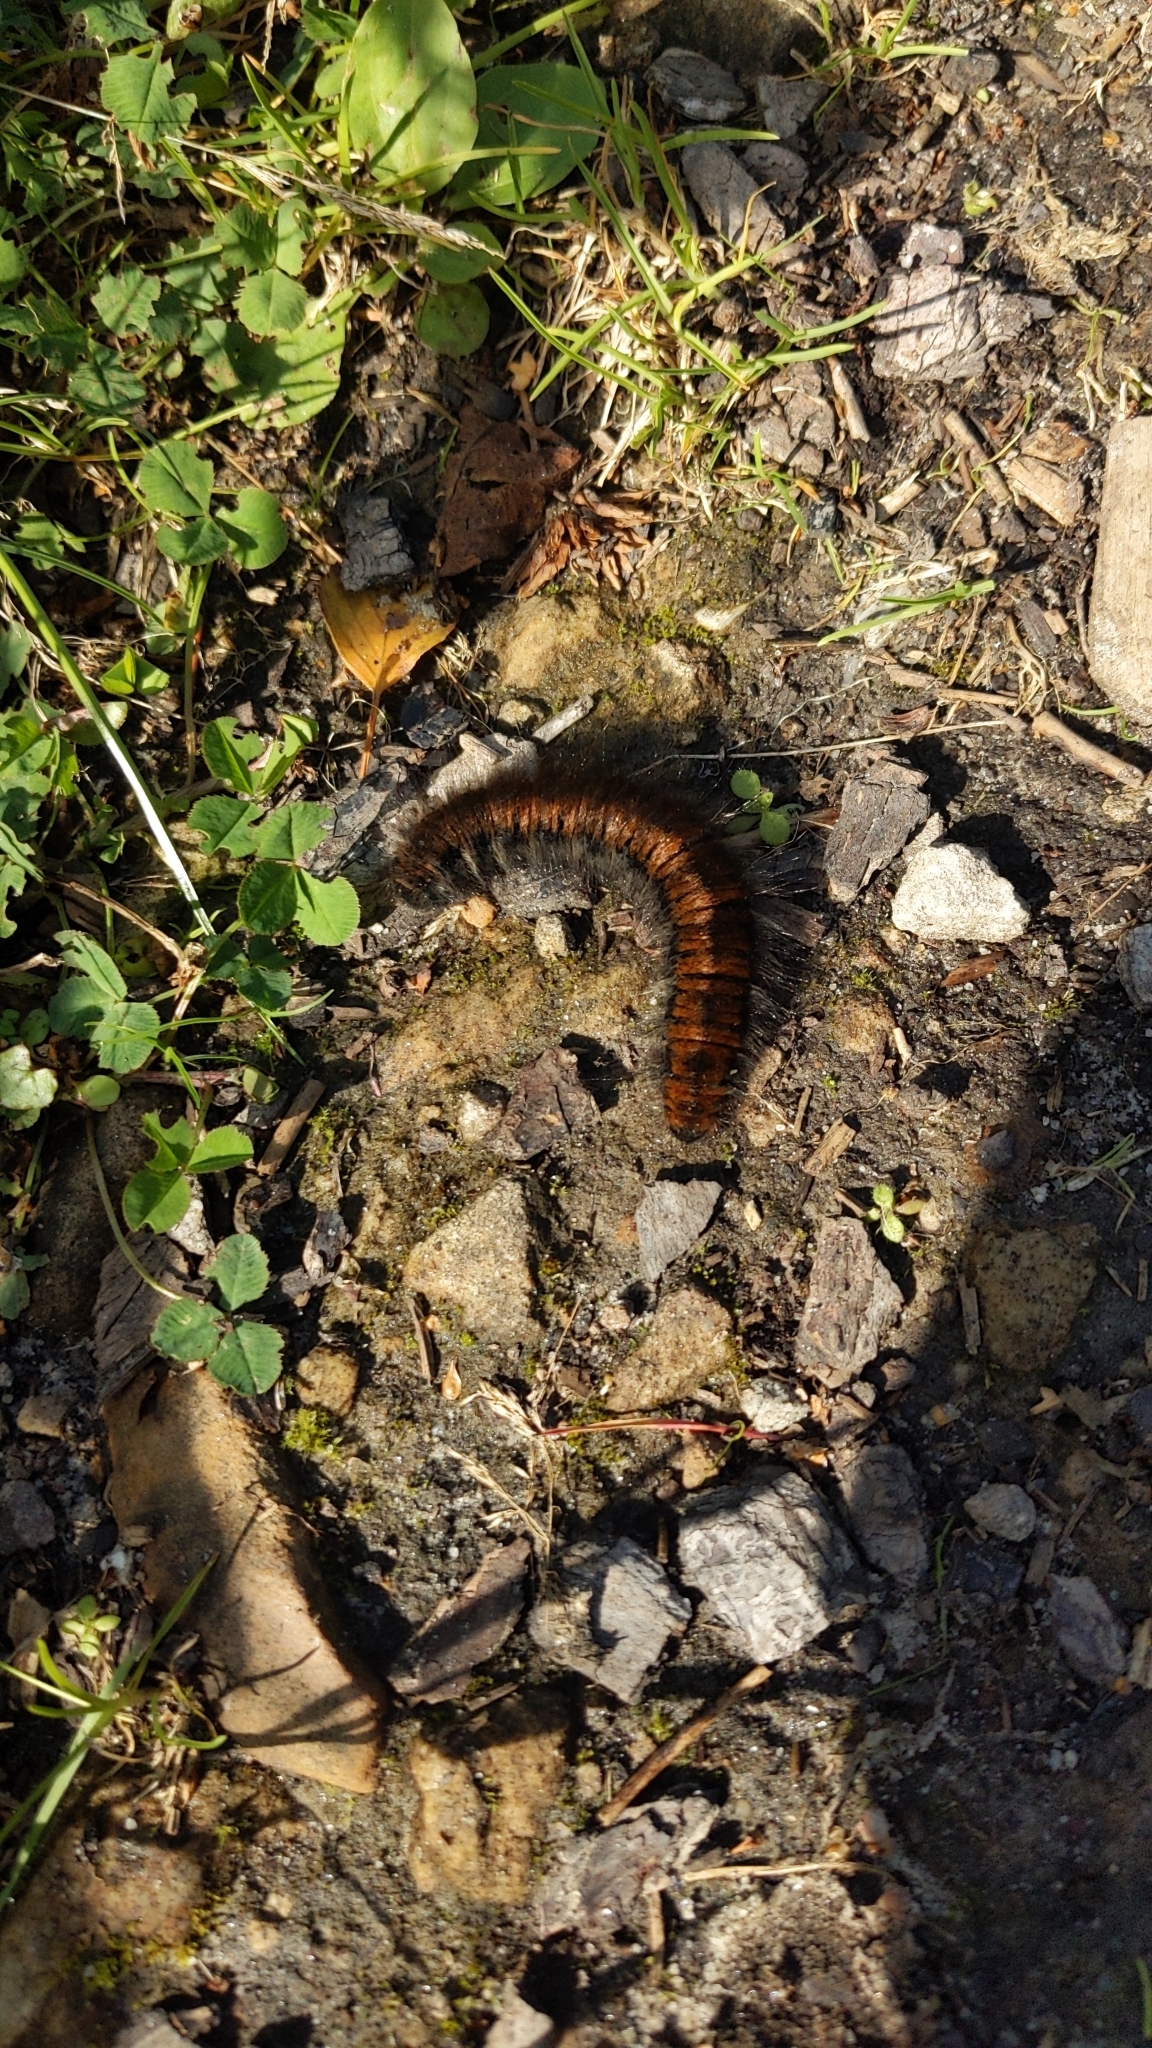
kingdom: Animalia
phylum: Arthropoda
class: Insecta
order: Lepidoptera
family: Lasiocampidae
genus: Macrothylacia
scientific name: Macrothylacia rubi
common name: Fox moth
